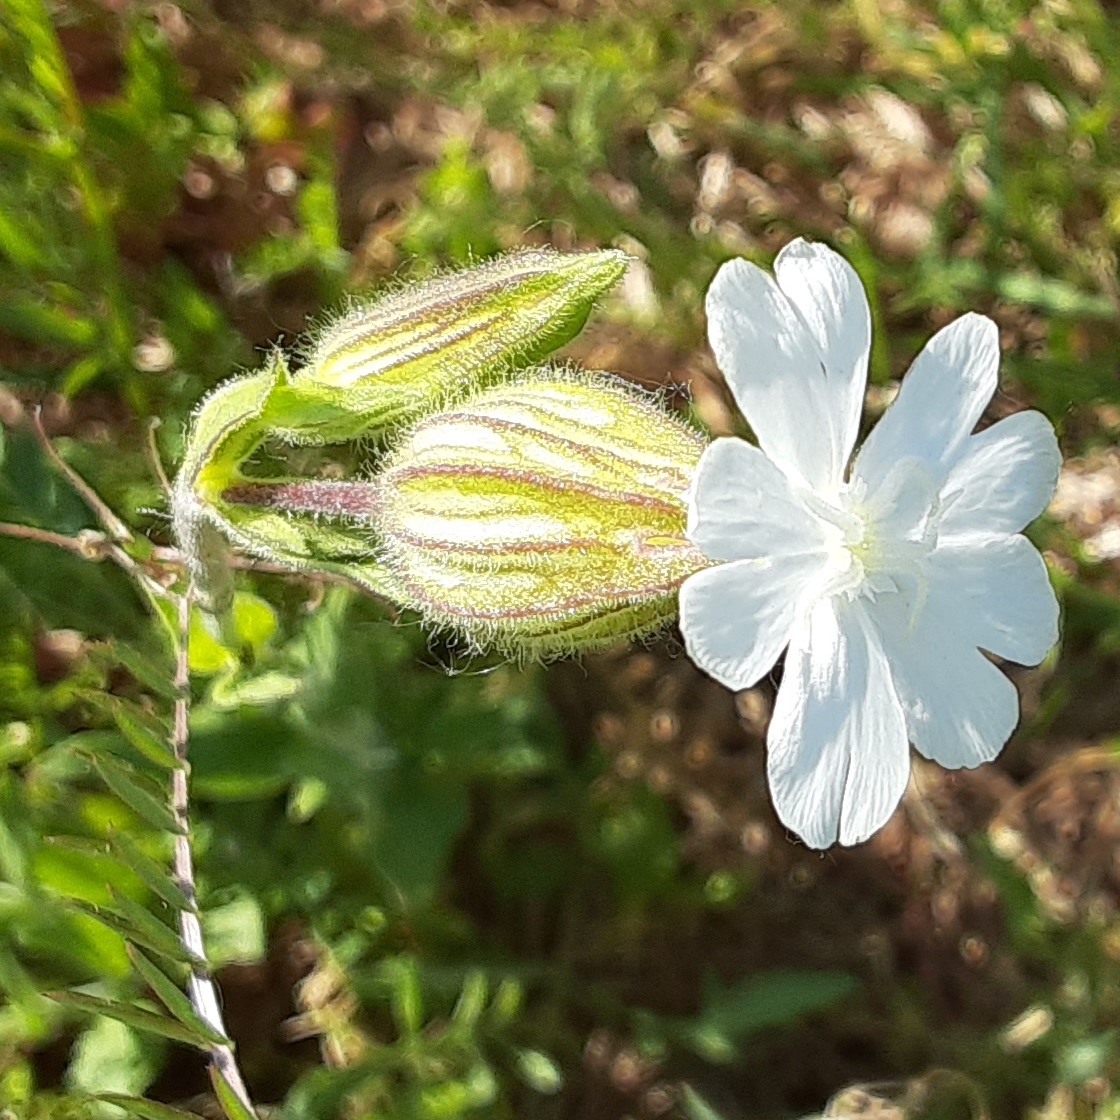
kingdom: Plantae
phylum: Tracheophyta
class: Magnoliopsida
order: Caryophyllales
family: Caryophyllaceae
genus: Silene
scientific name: Silene latifolia
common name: White campion
